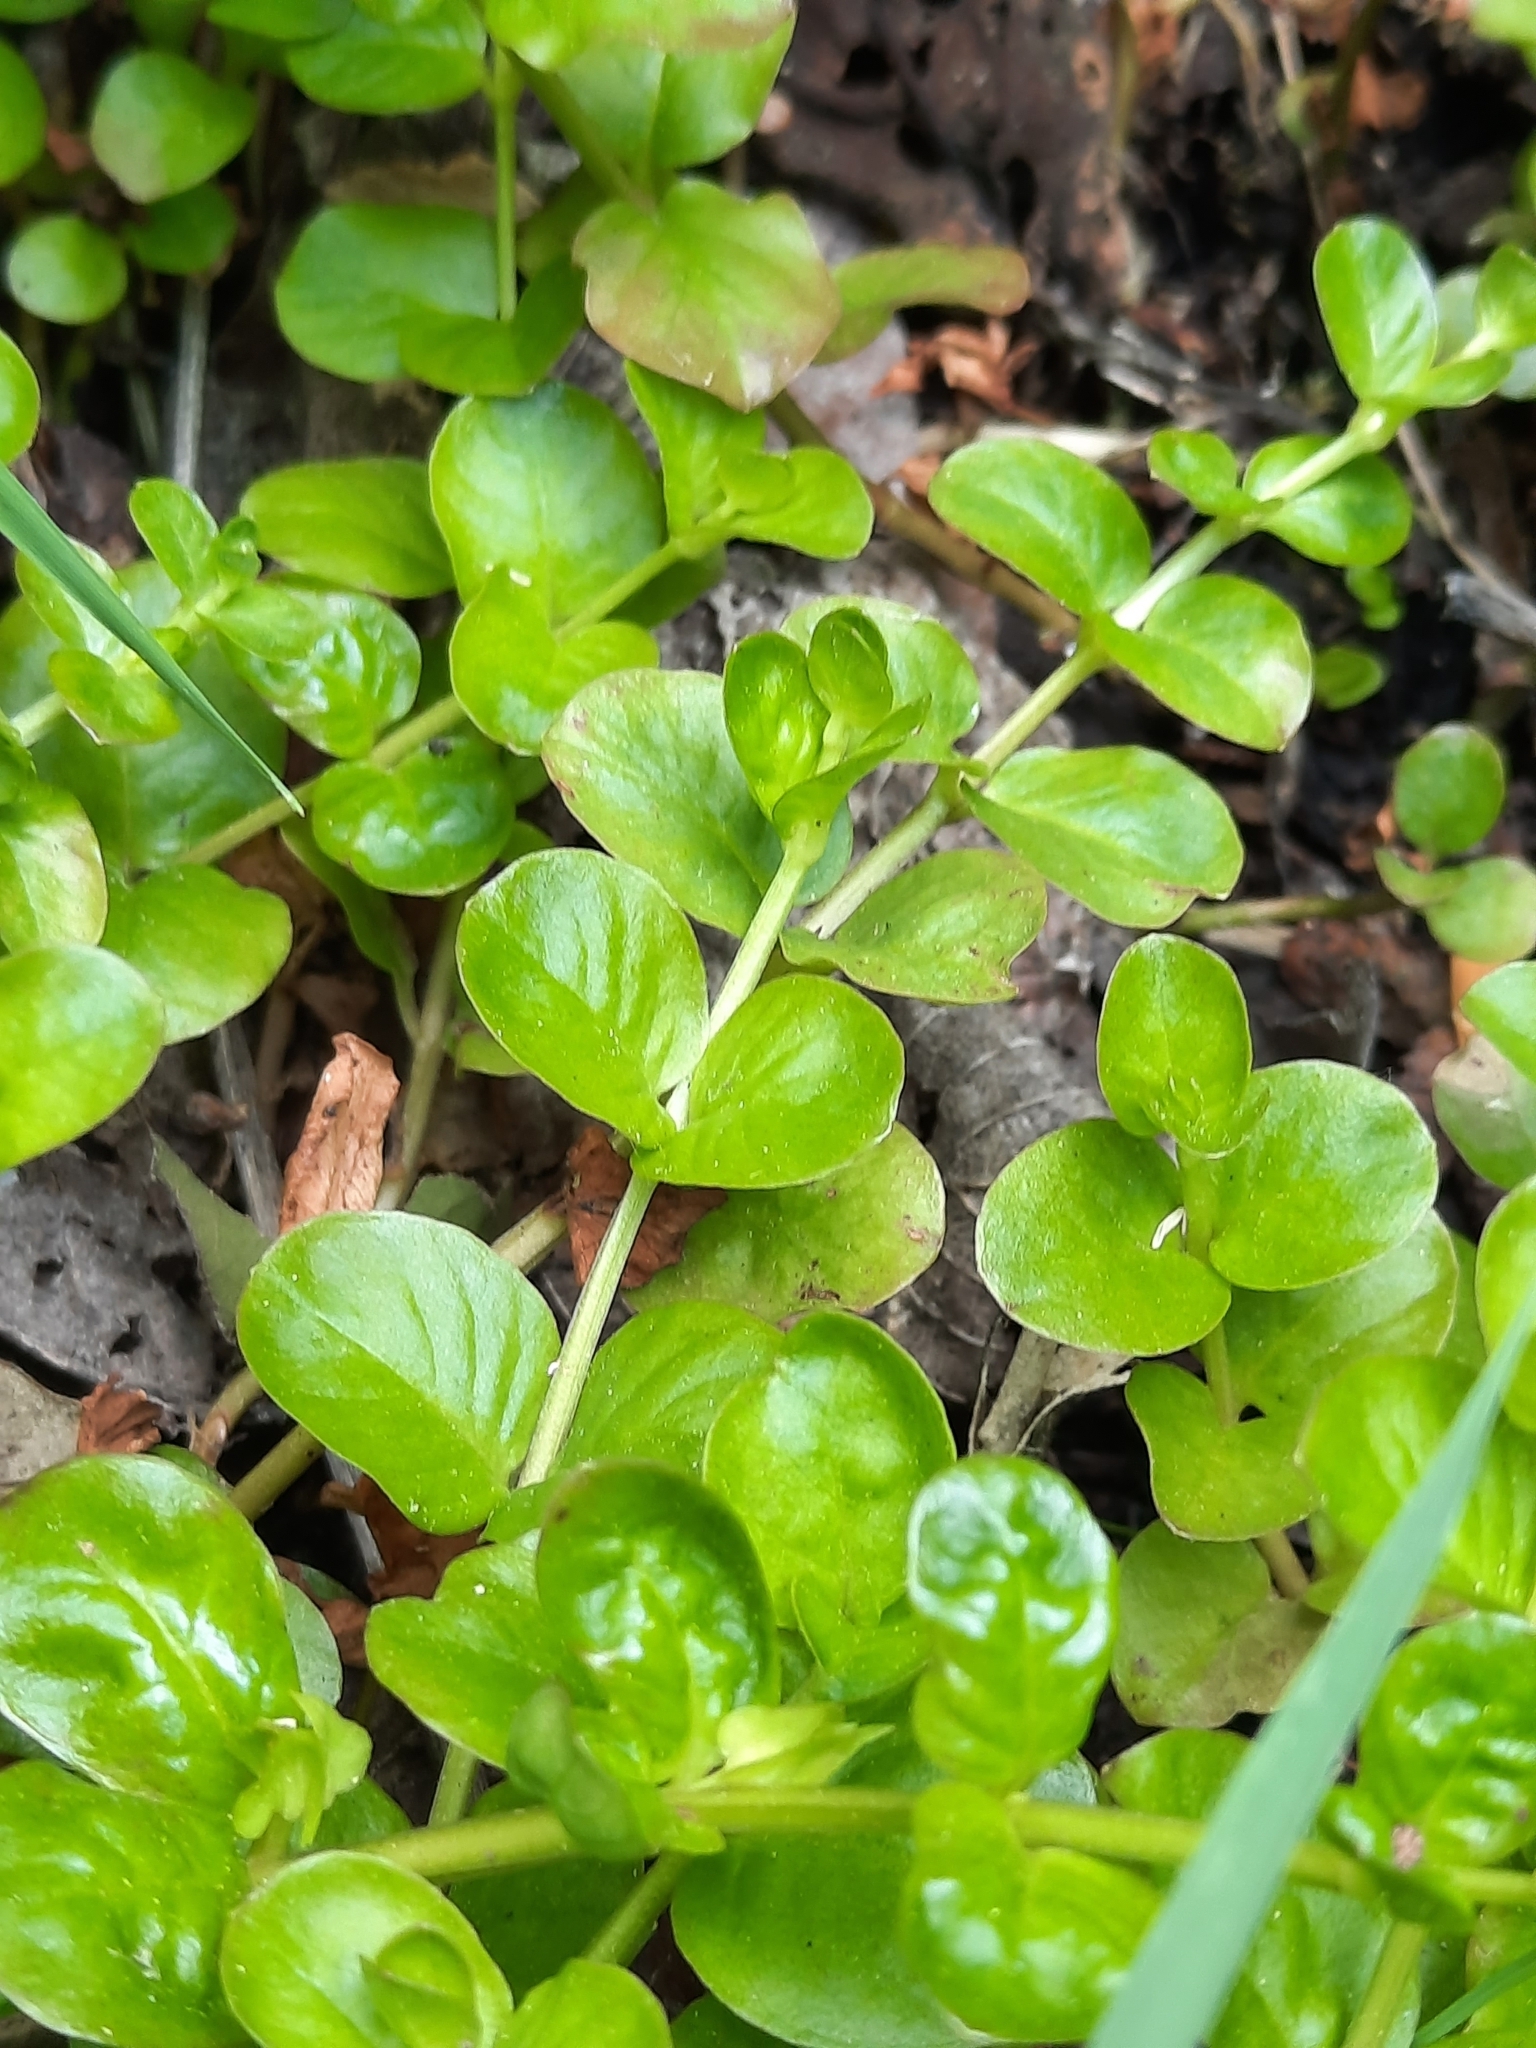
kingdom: Plantae
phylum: Tracheophyta
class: Magnoliopsida
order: Ericales
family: Primulaceae
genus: Lysimachia
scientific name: Lysimachia nummularia
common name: Moneywort
